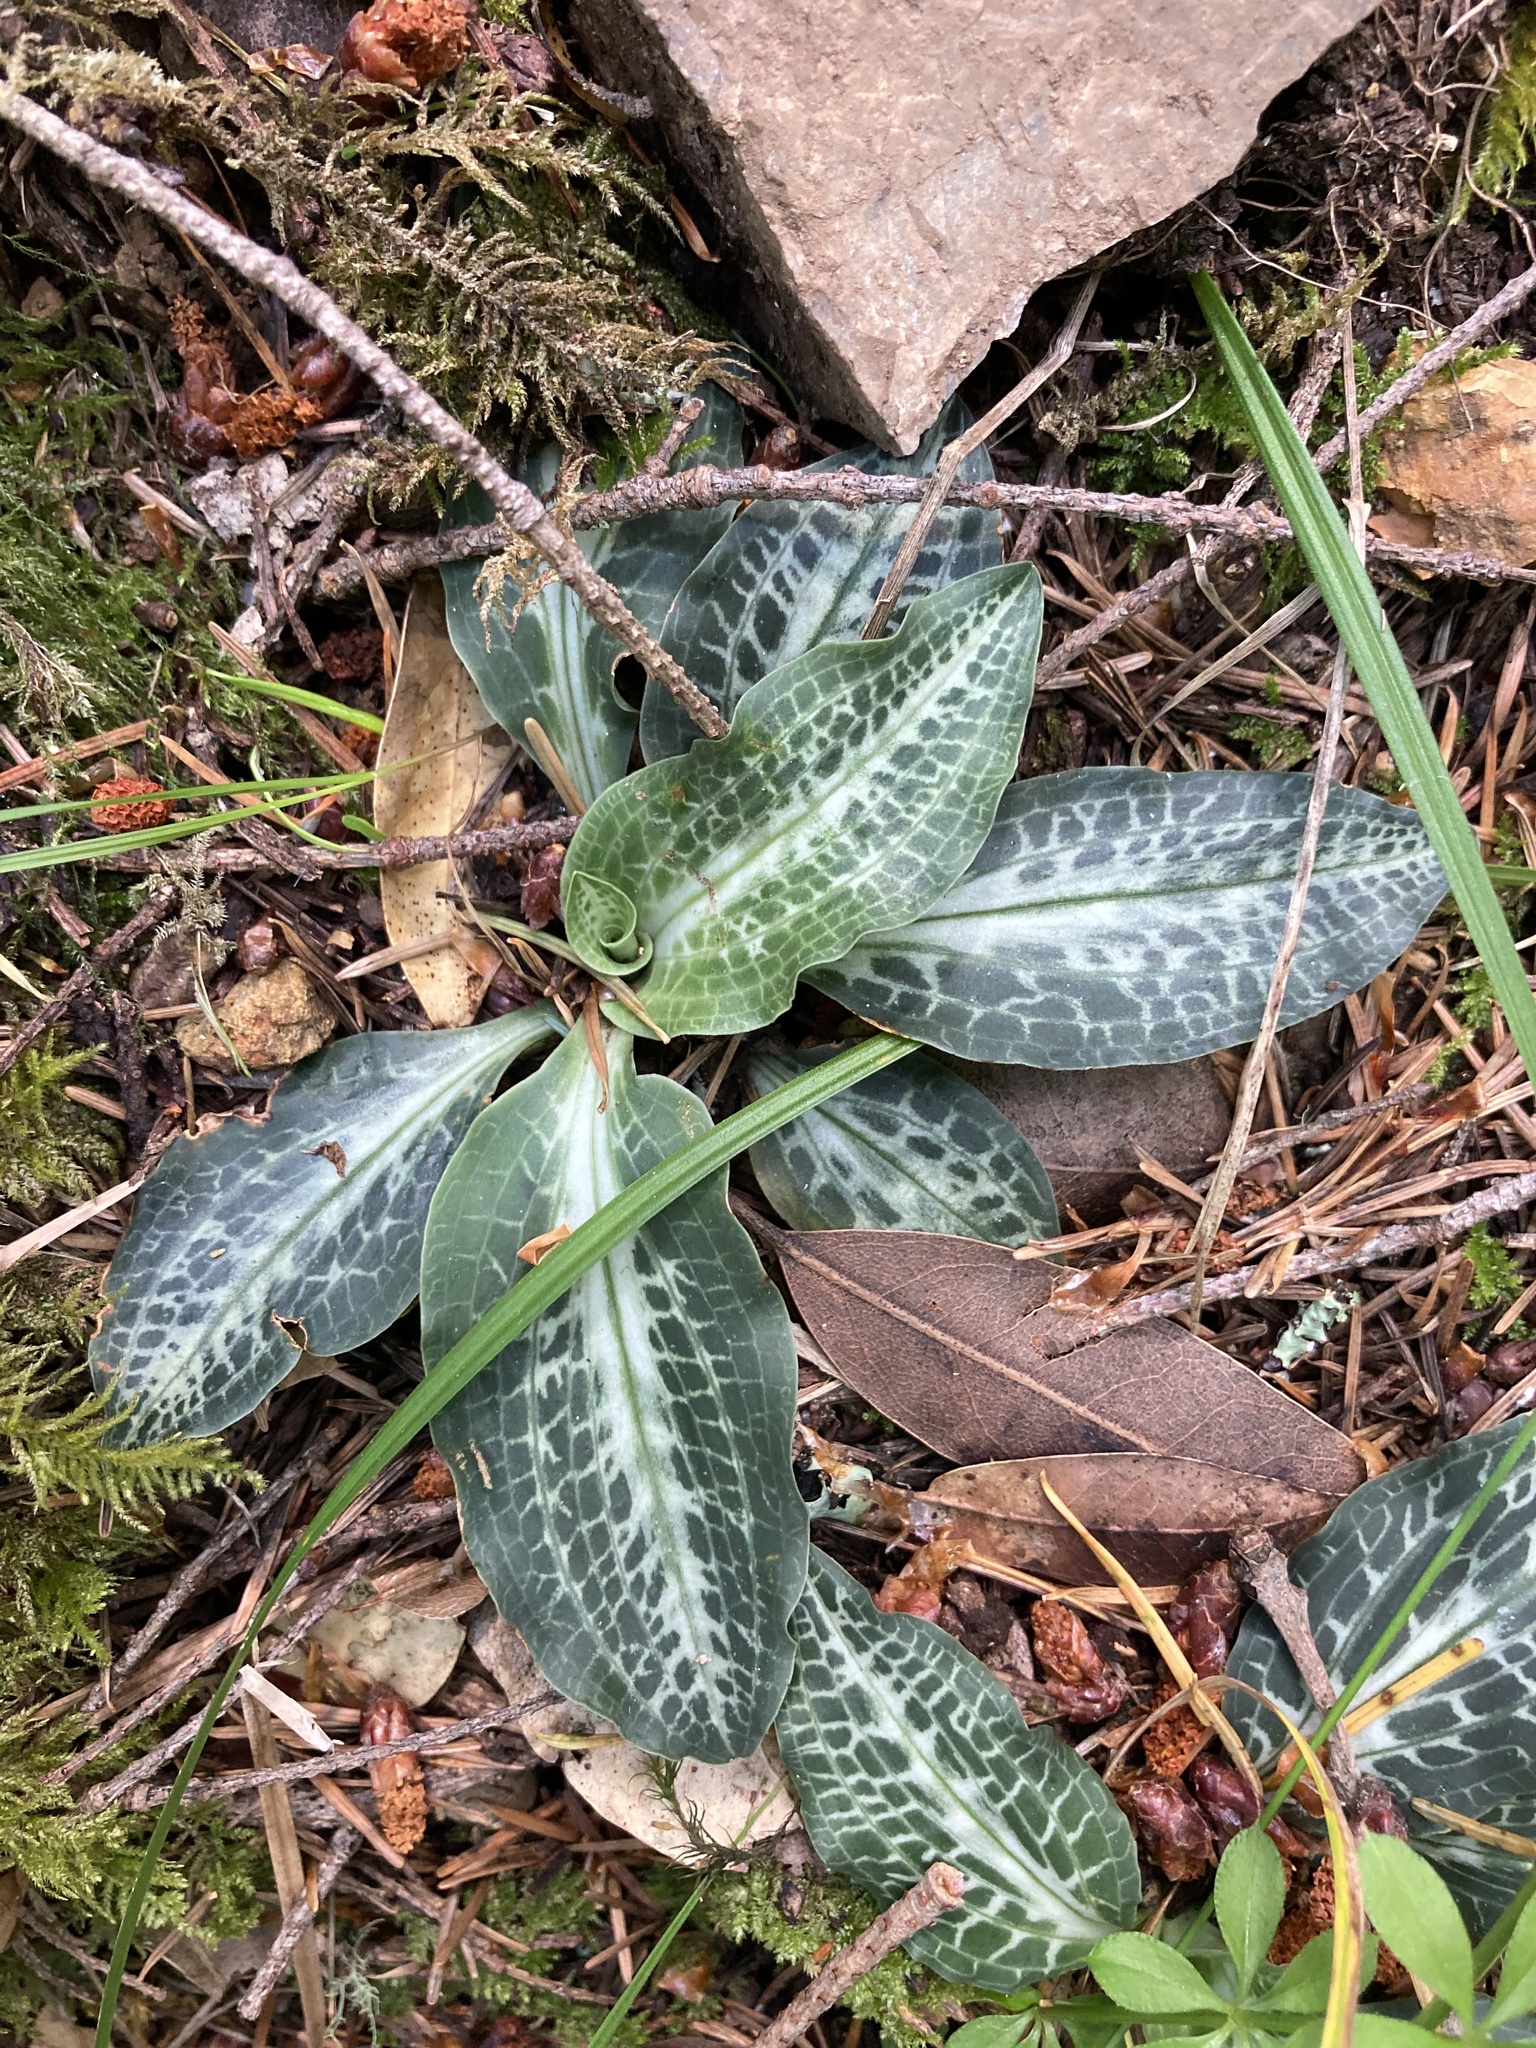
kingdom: Plantae
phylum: Tracheophyta
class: Liliopsida
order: Asparagales
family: Orchidaceae
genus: Goodyera
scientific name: Goodyera oblongifolia
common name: Giant rattlesnake-plantain
